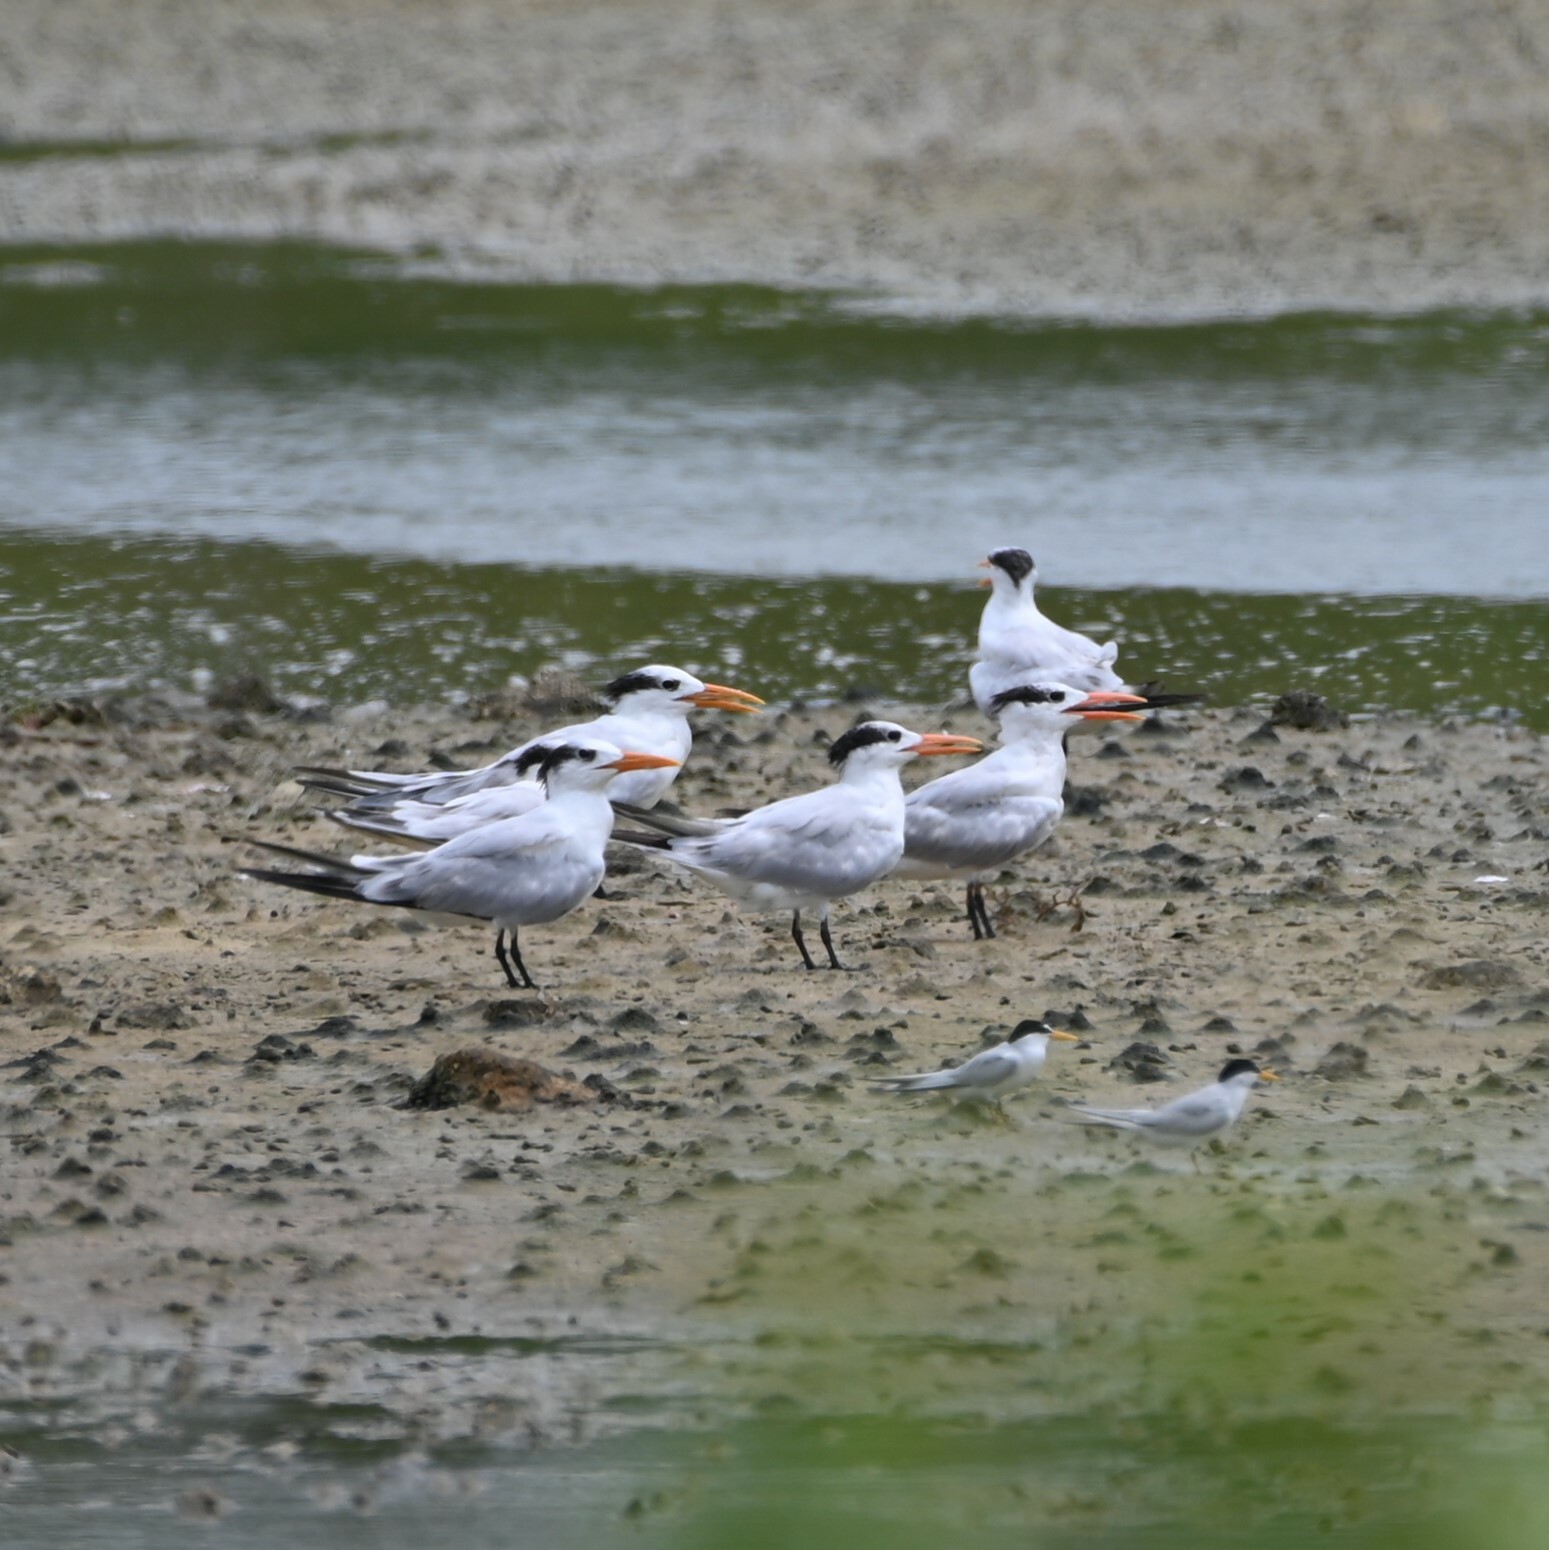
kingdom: Animalia
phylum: Chordata
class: Aves
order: Charadriiformes
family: Laridae
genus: Thalasseus
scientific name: Thalasseus maximus
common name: Royal tern
